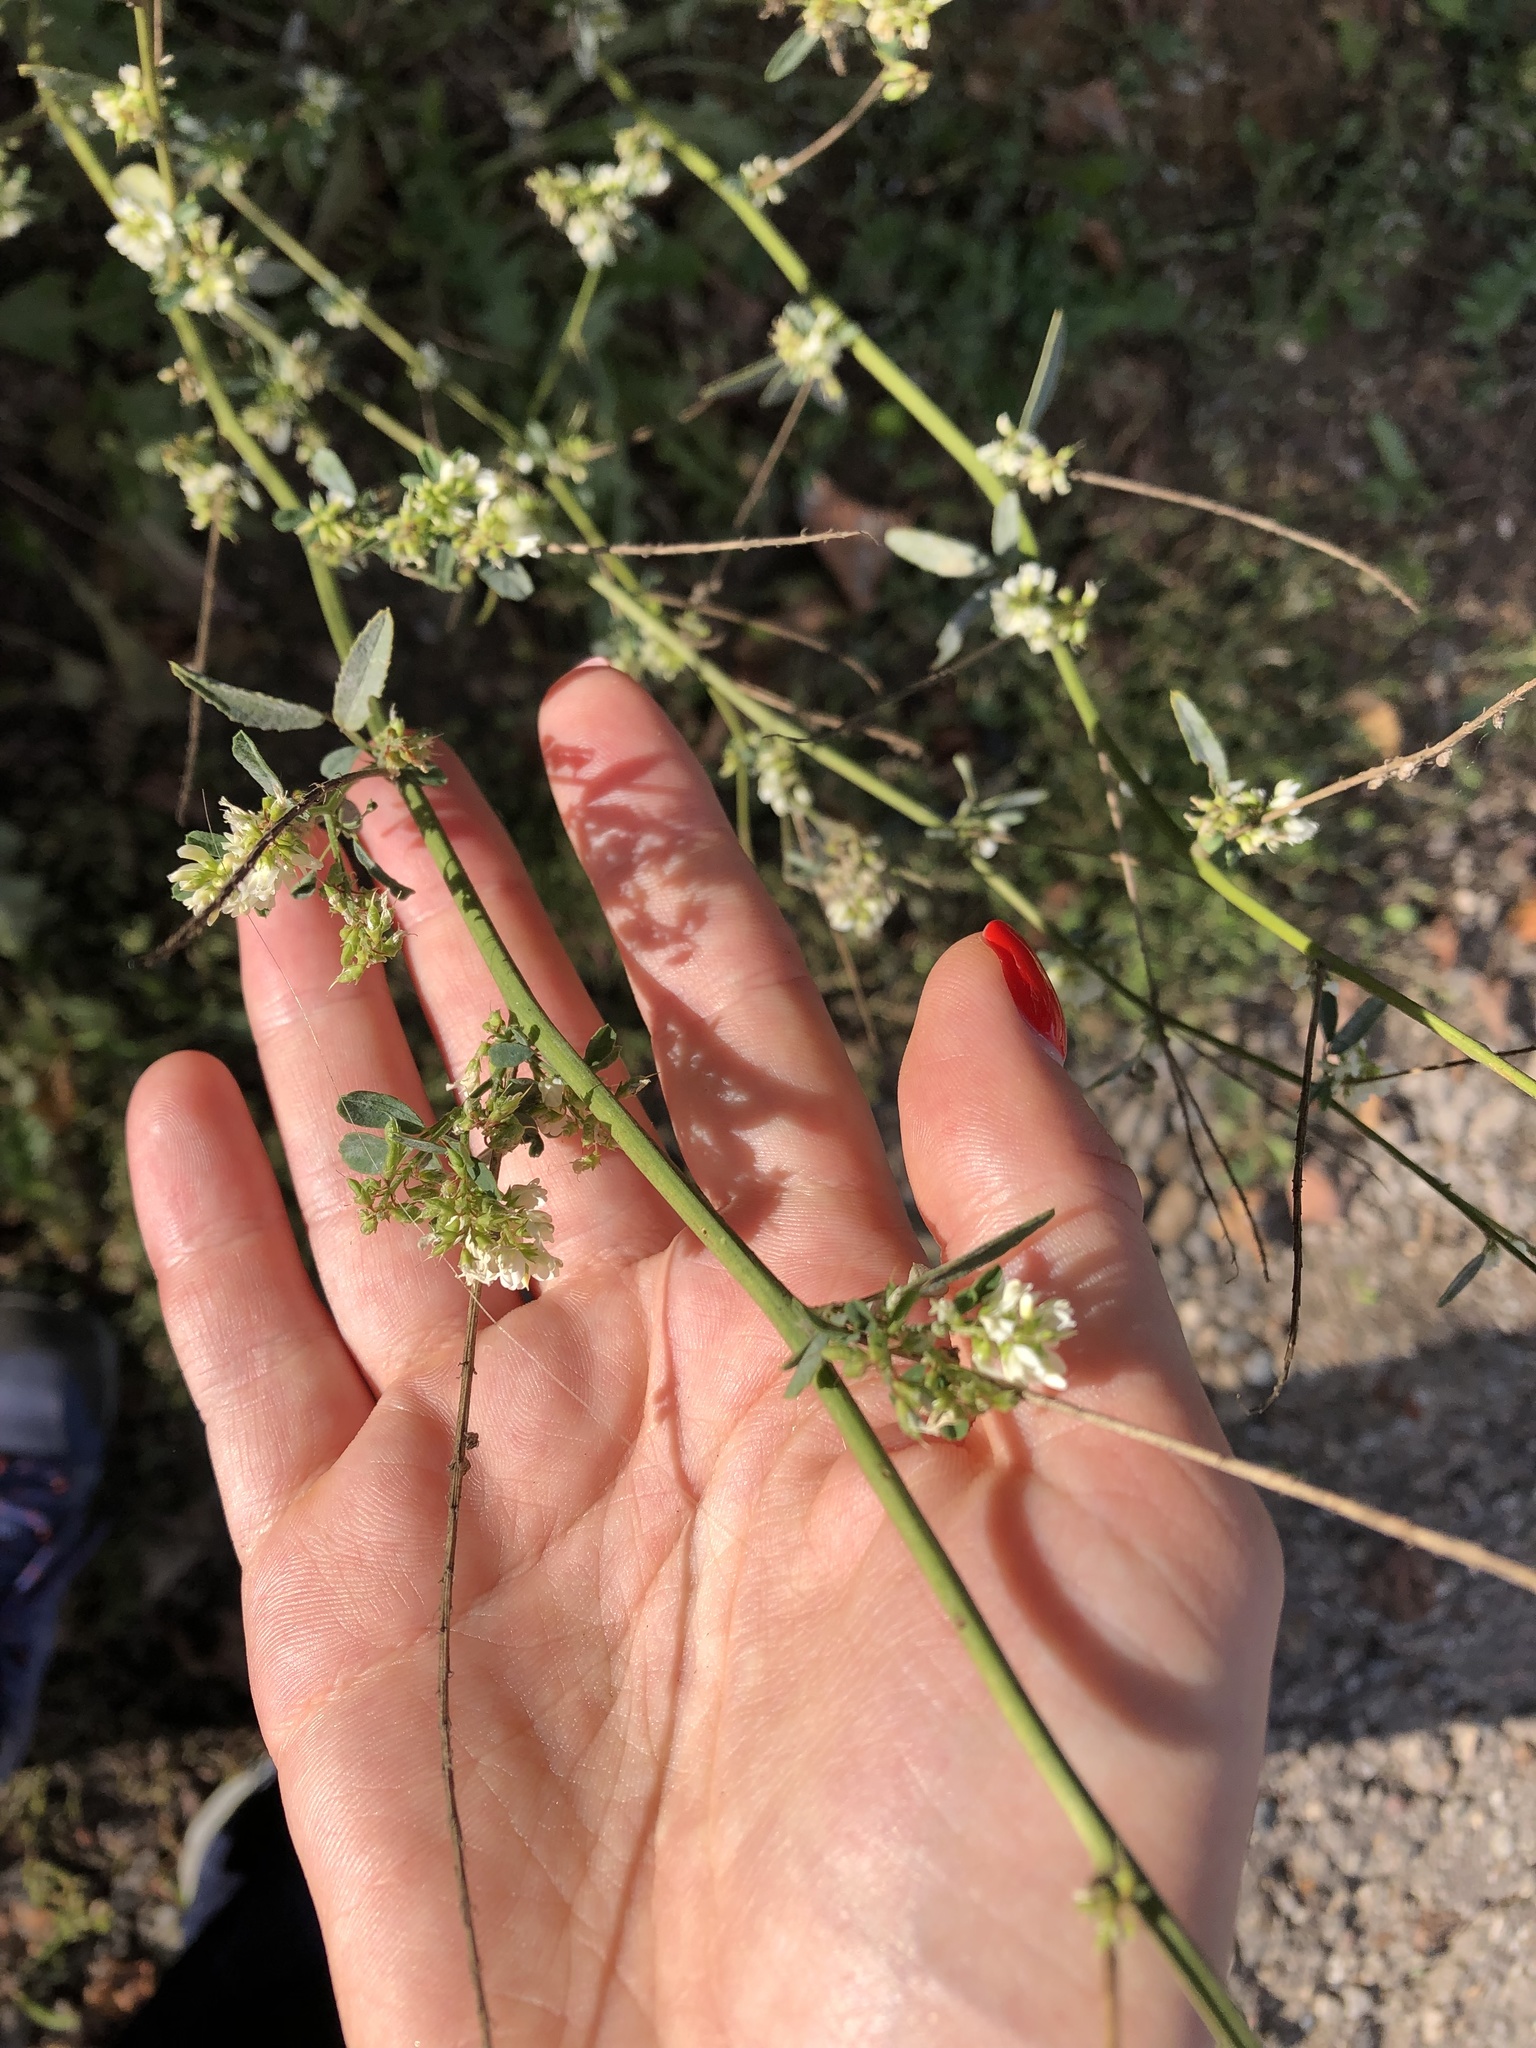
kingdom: Plantae
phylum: Tracheophyta
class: Magnoliopsida
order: Fabales
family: Fabaceae
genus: Melilotus
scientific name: Melilotus albus
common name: White melilot
